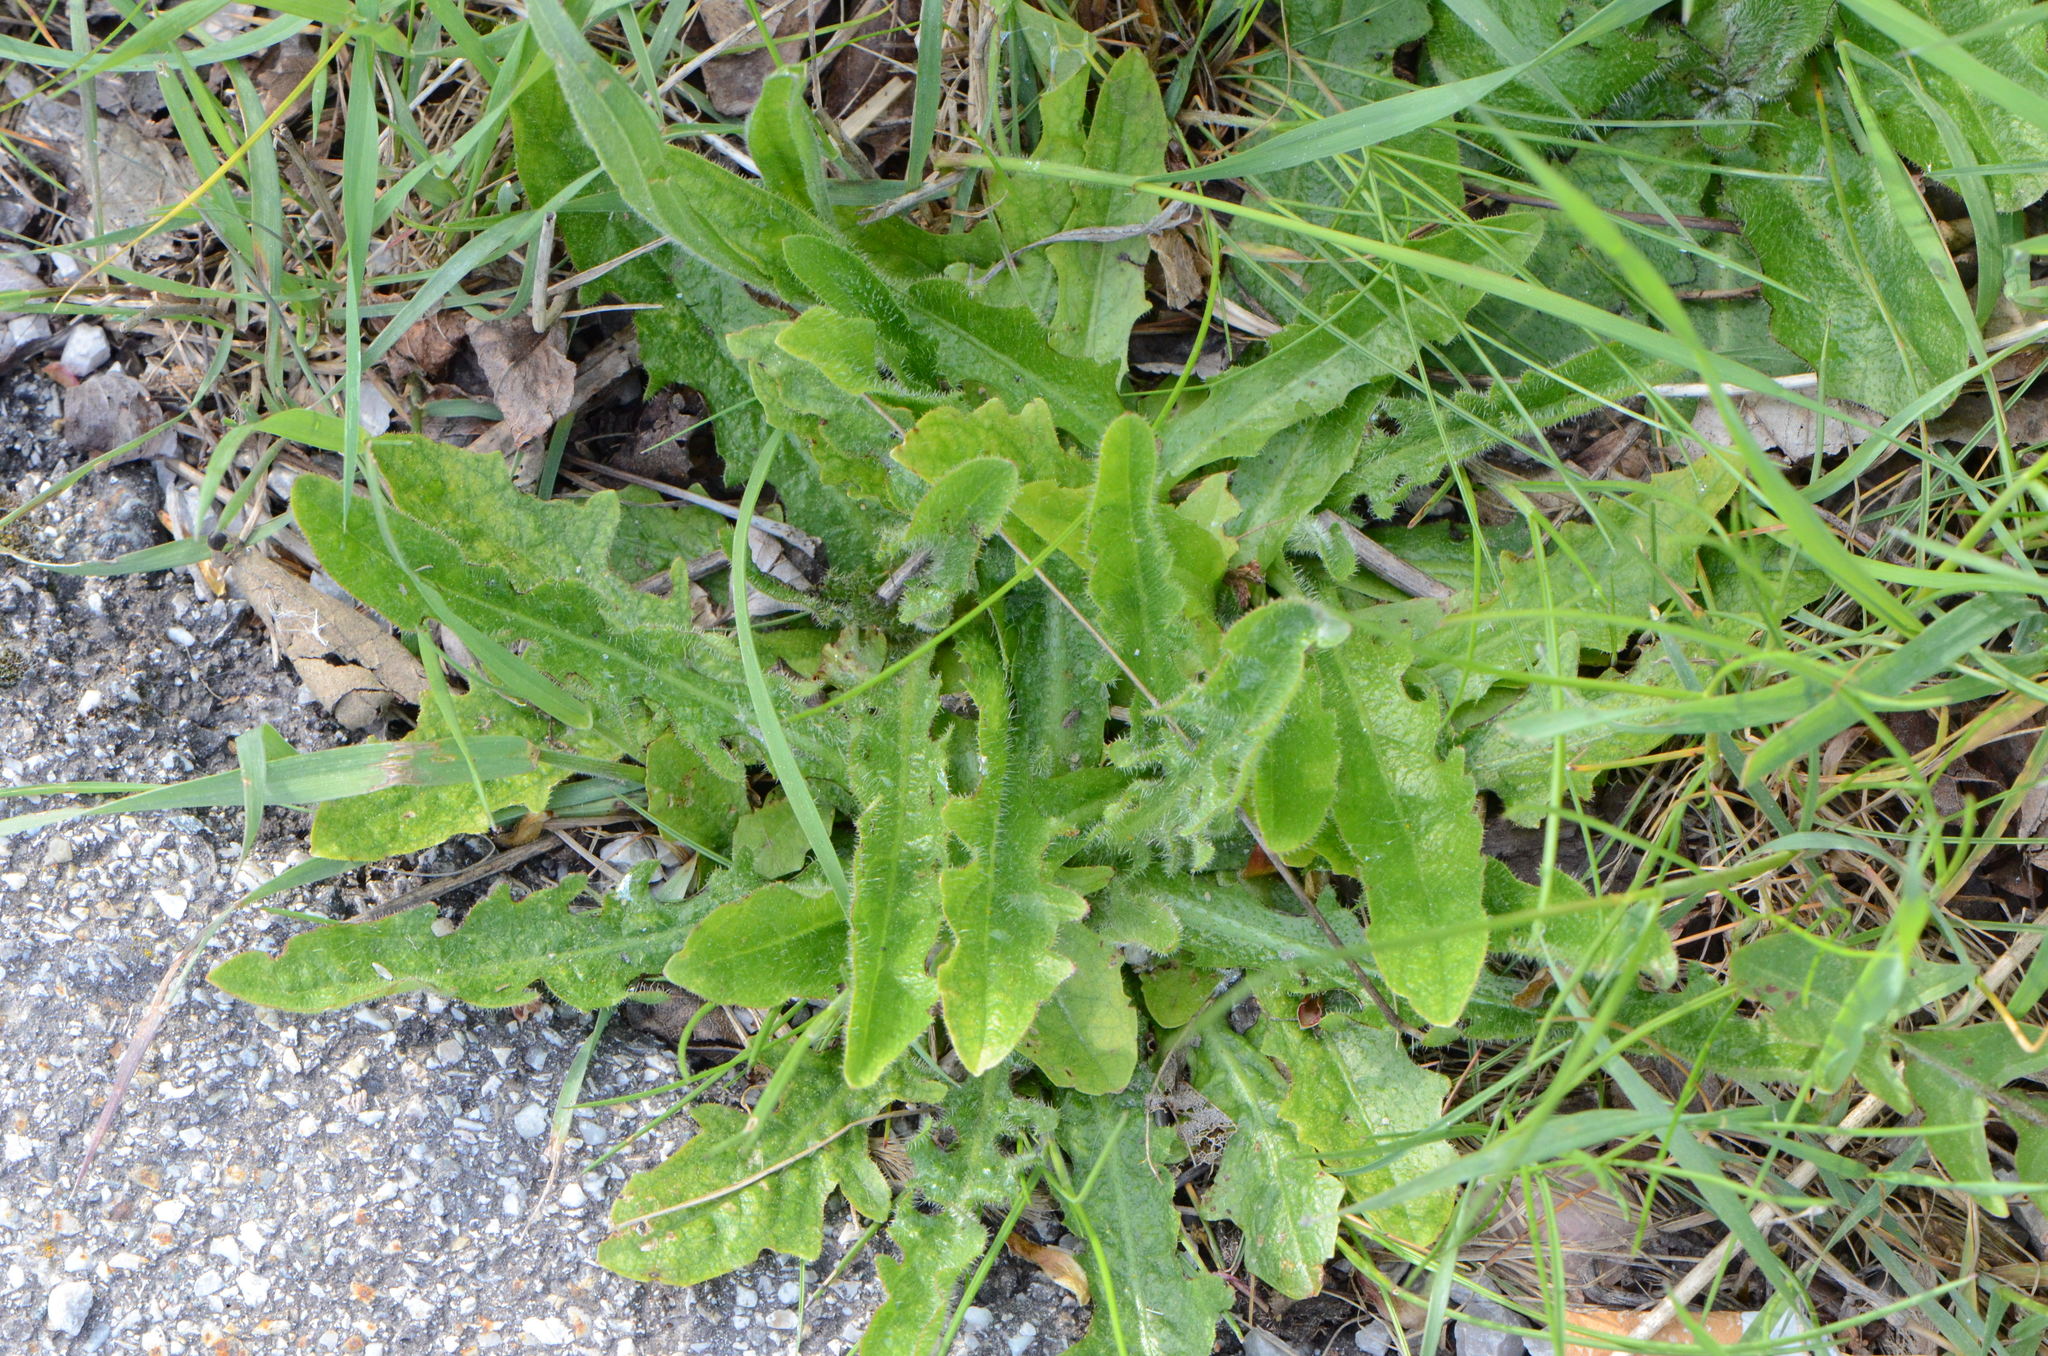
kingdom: Plantae
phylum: Tracheophyta
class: Magnoliopsida
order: Asterales
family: Asteraceae
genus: Hypochaeris
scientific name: Hypochaeris radicata
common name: Flatweed
